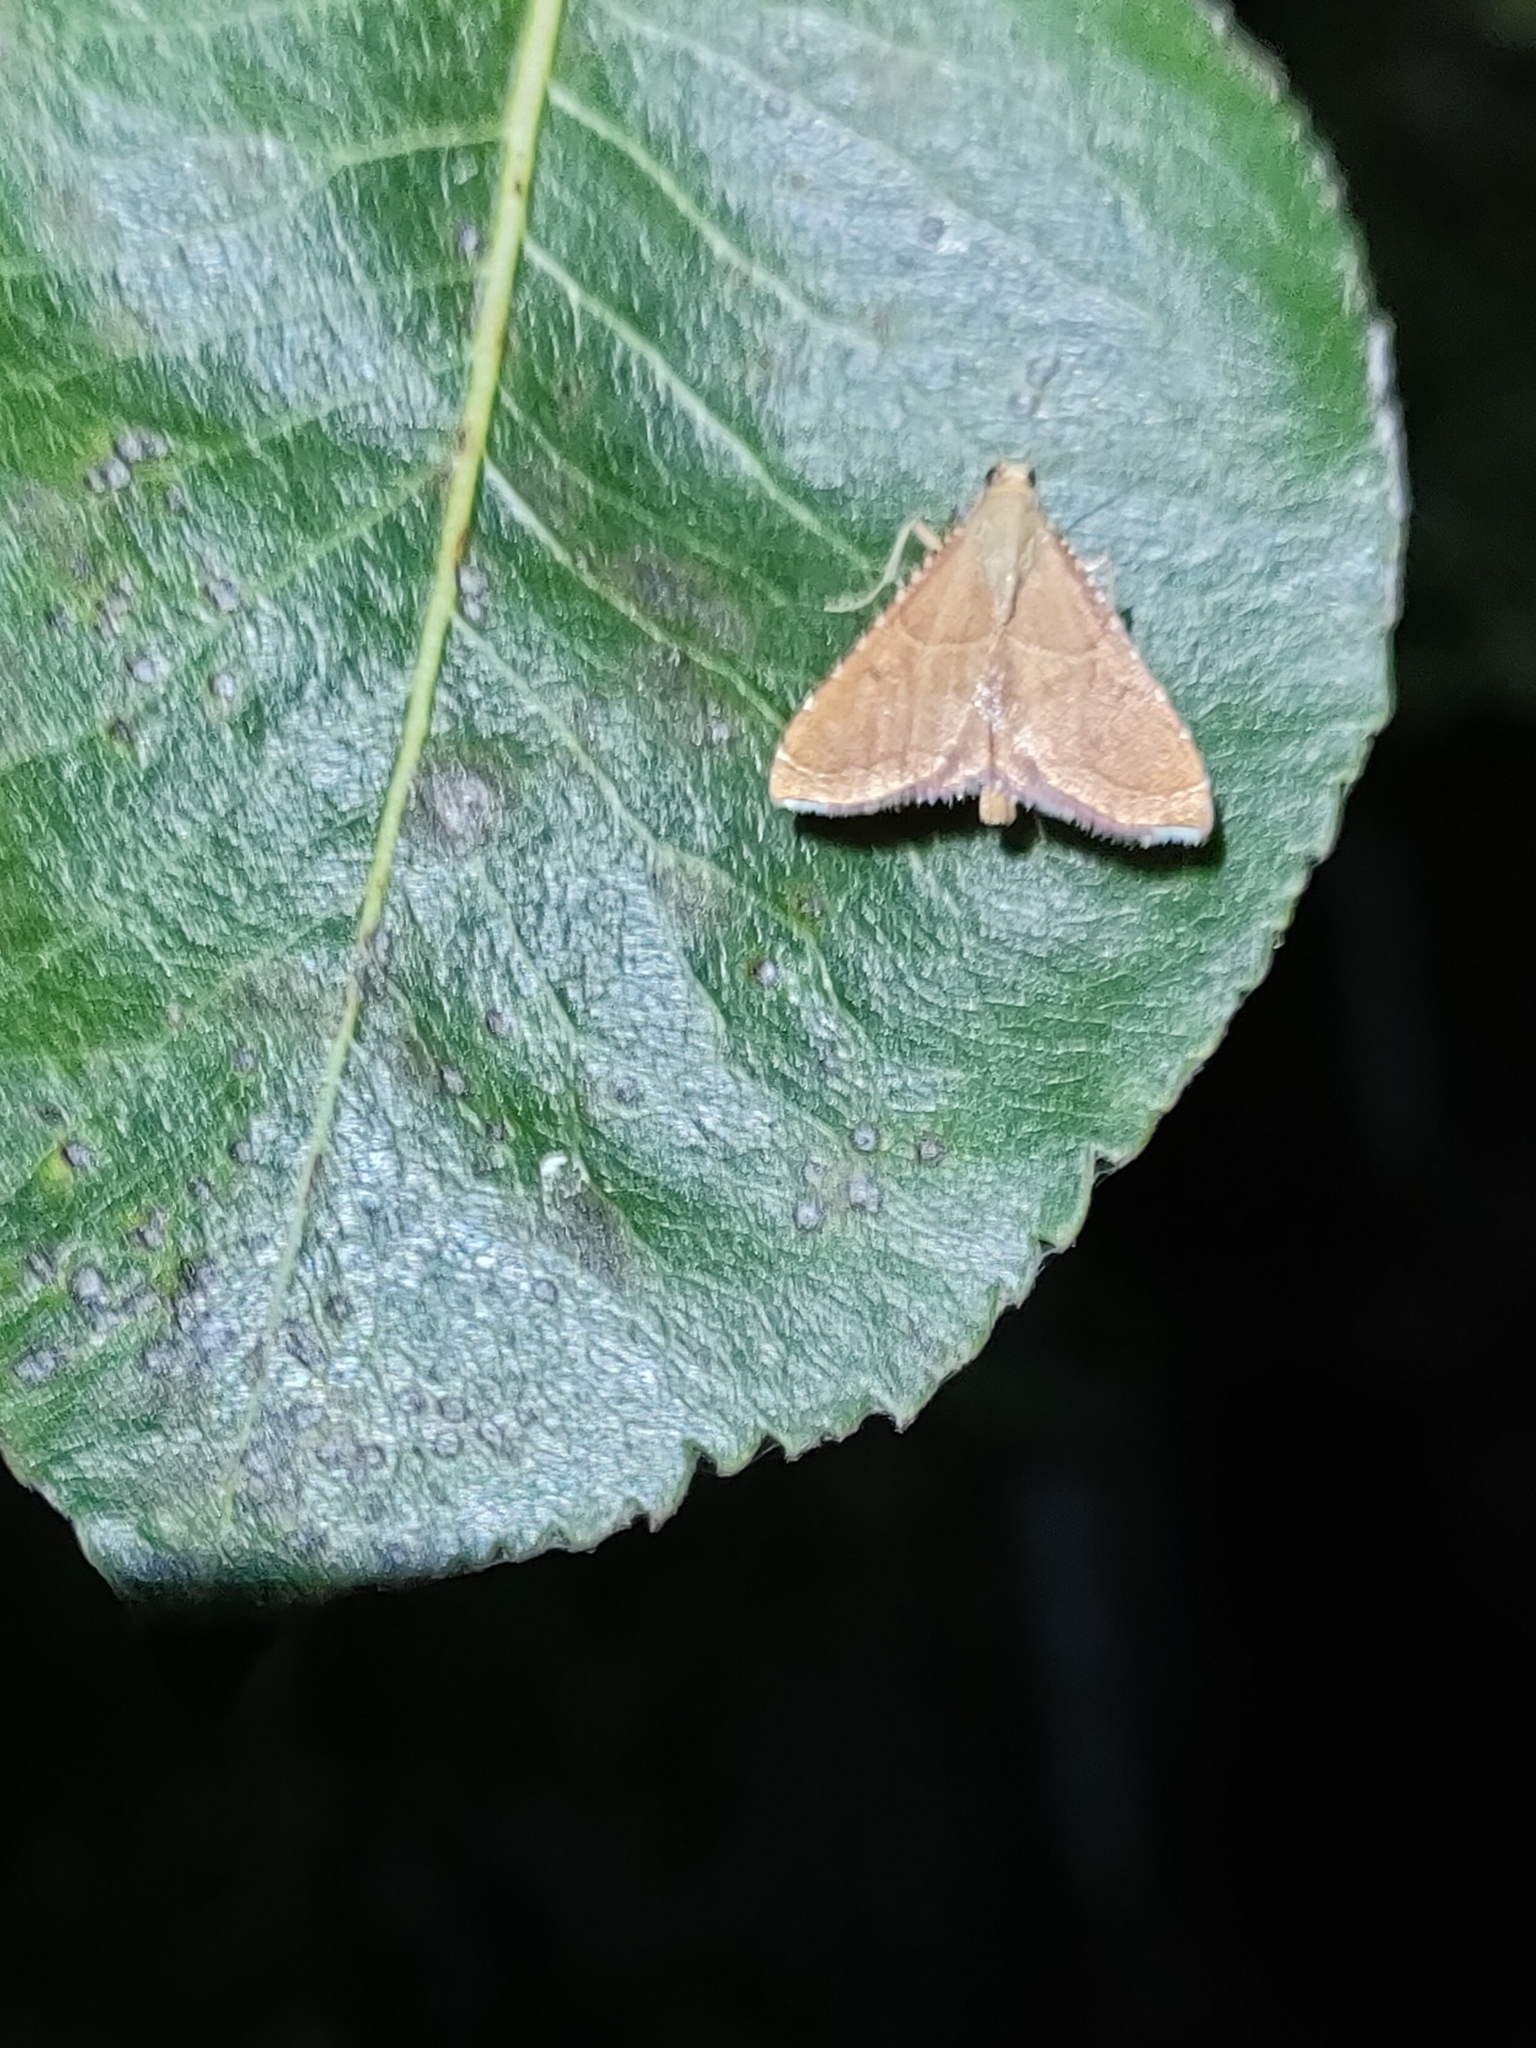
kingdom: Animalia
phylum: Arthropoda
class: Insecta
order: Lepidoptera
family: Pyralidae
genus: Endotricha
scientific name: Endotricha flammealis
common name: Rosy tabby
